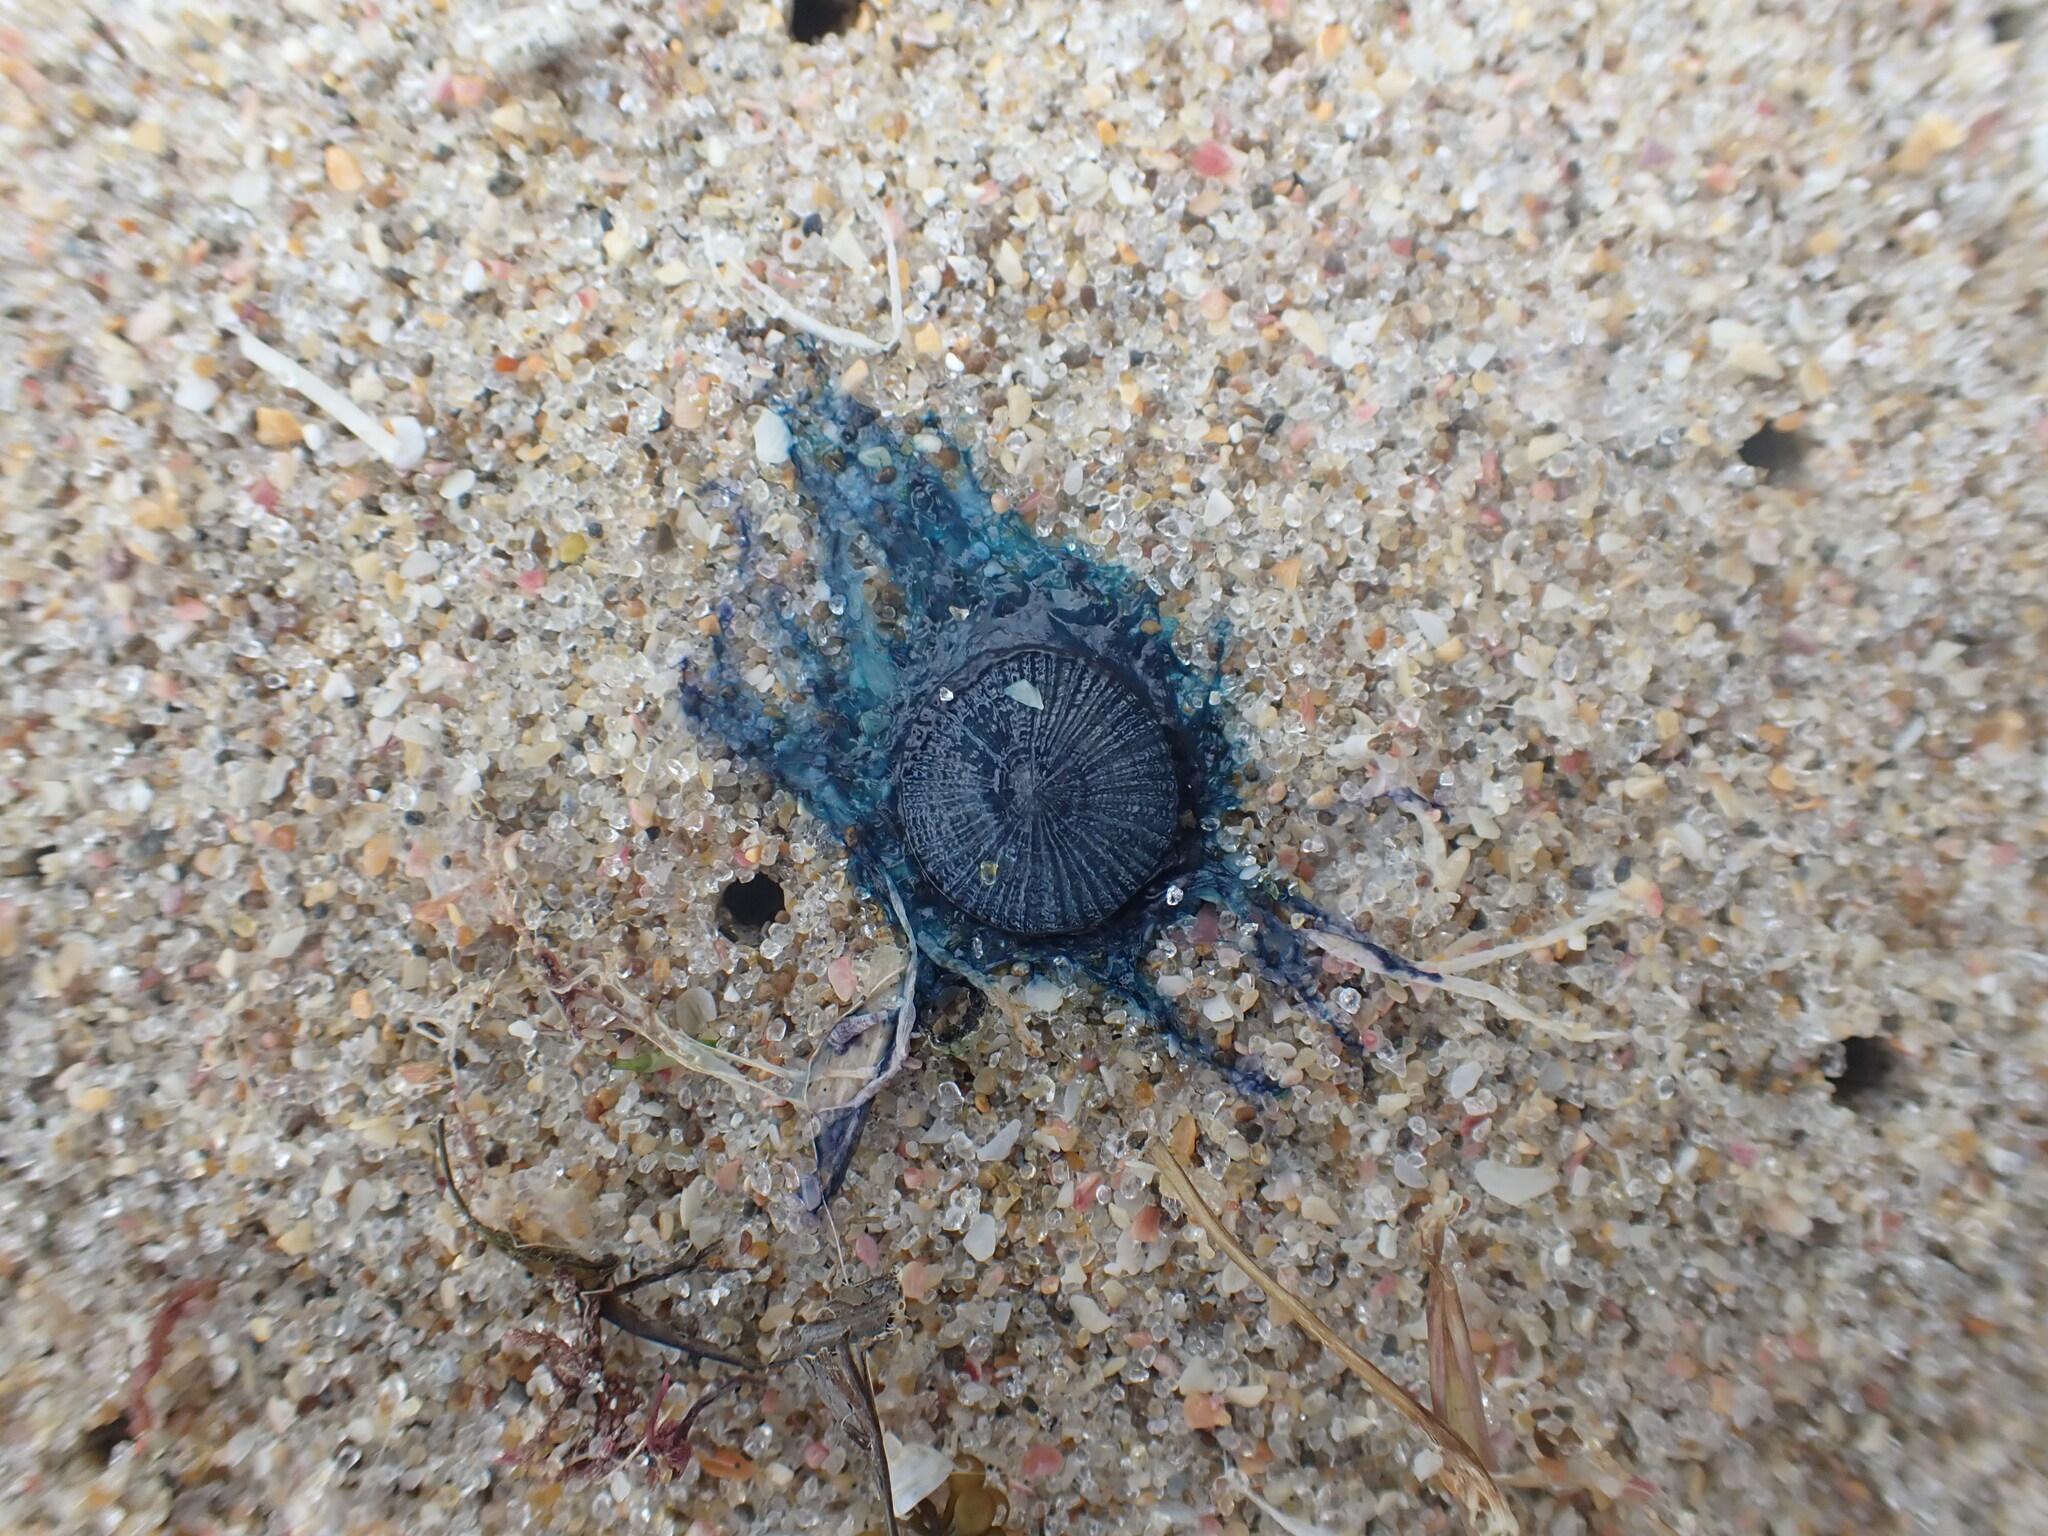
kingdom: Animalia
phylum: Cnidaria
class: Hydrozoa
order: Anthoathecata
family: Porpitidae
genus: Porpita
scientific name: Porpita porpita
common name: Blue button
